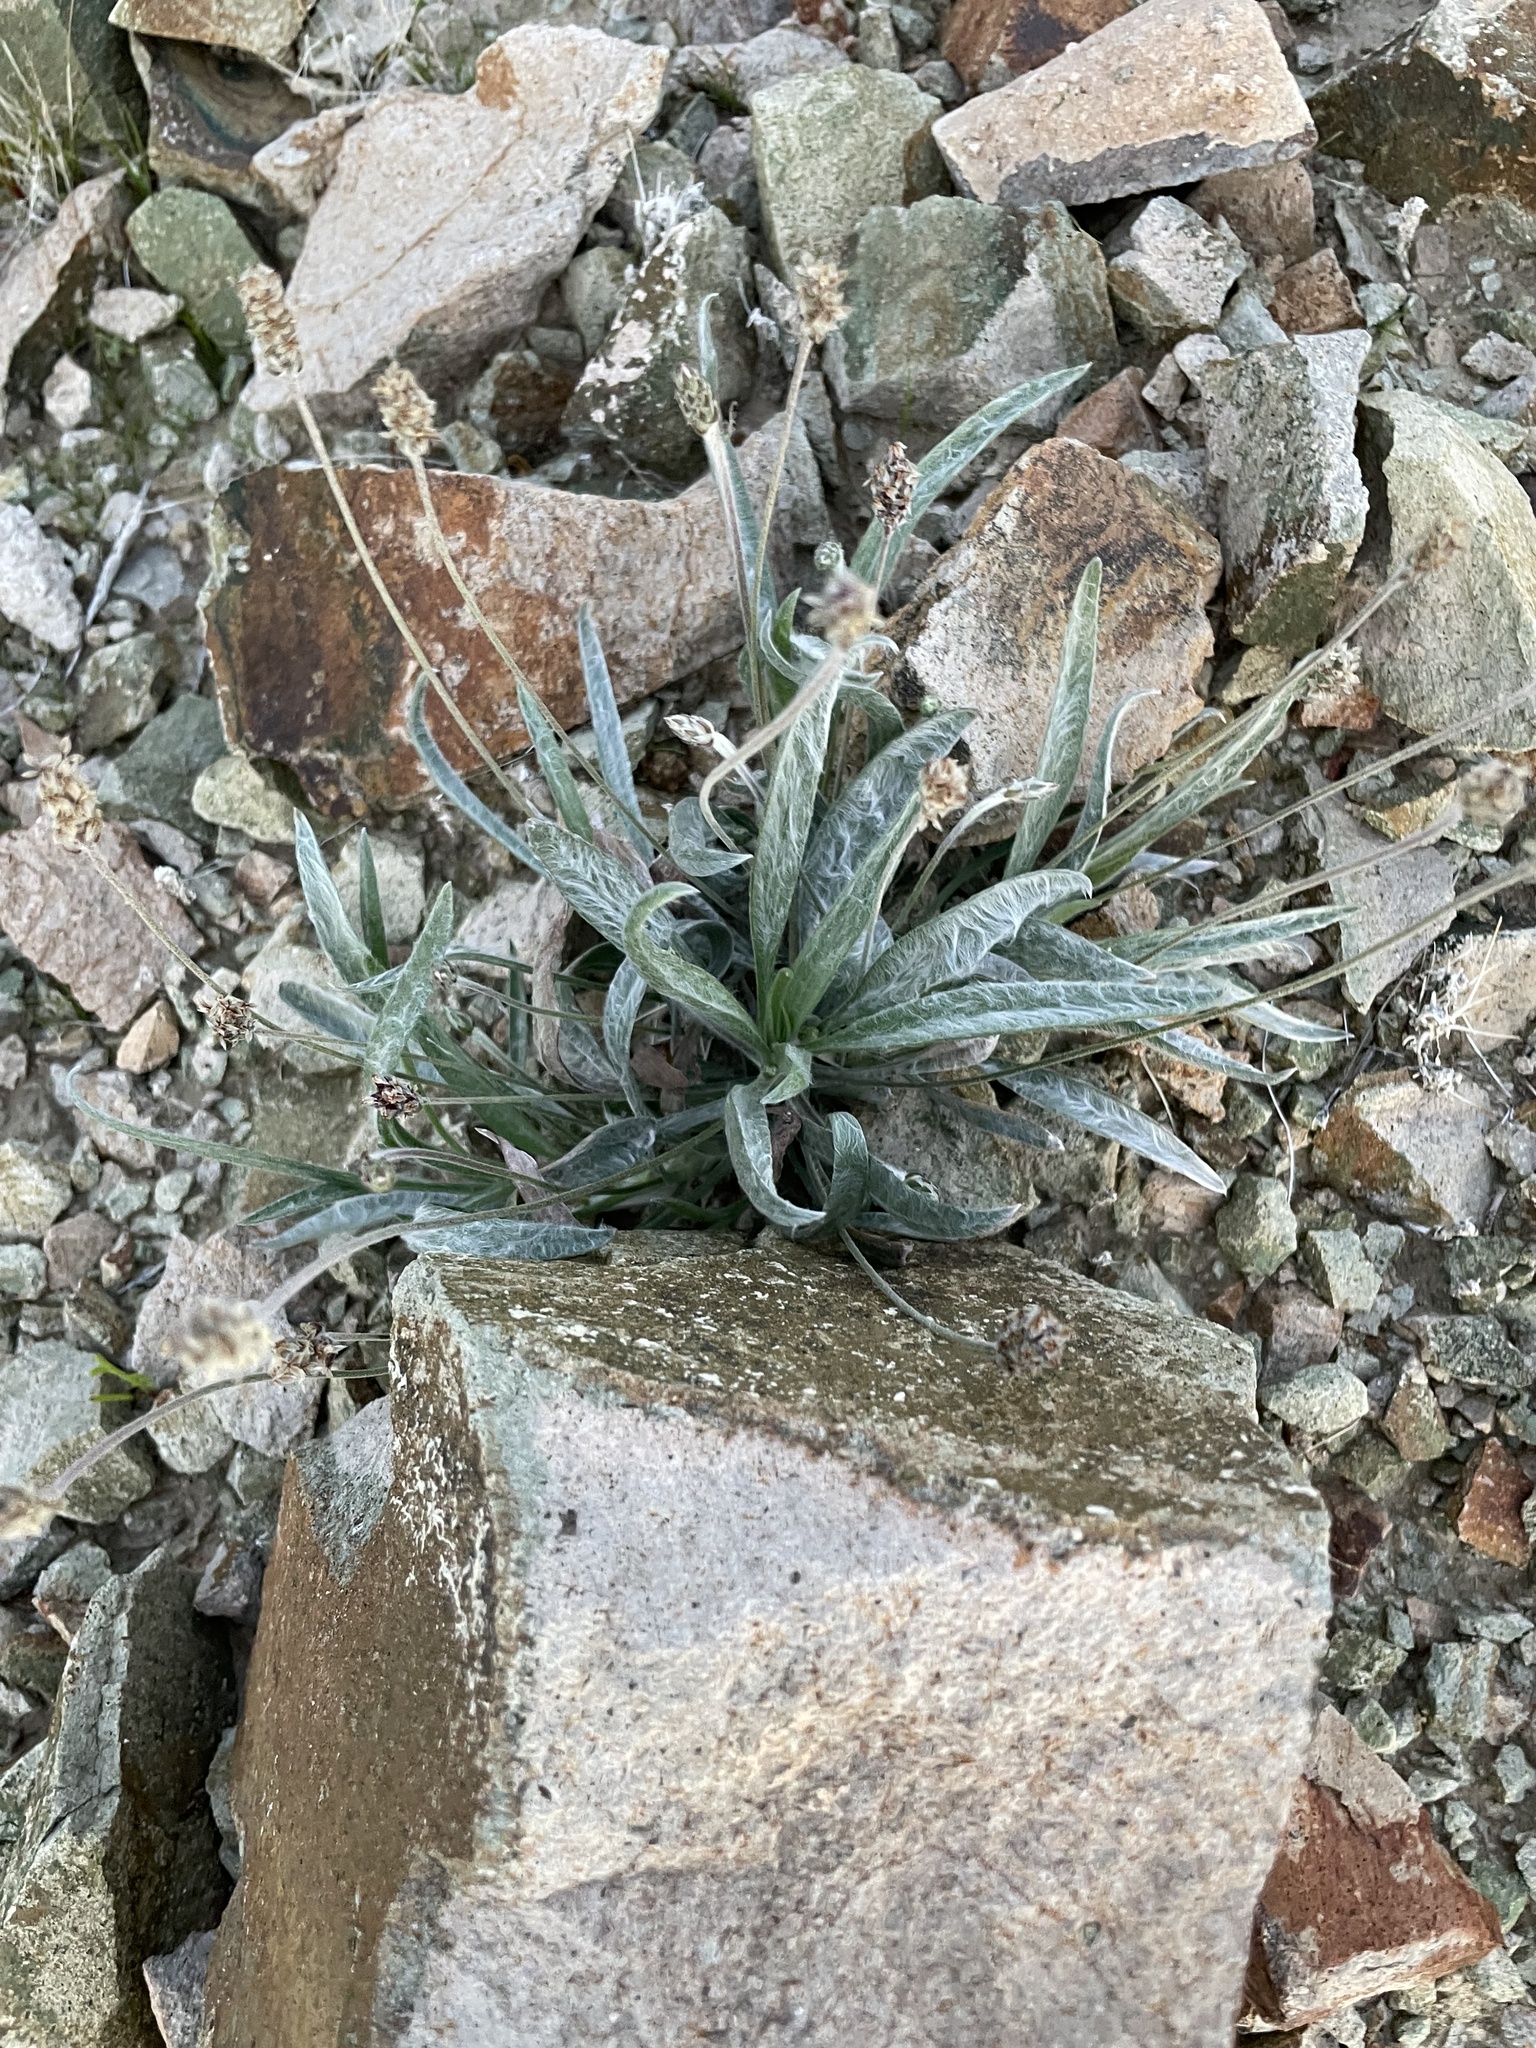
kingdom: Plantae
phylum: Tracheophyta
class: Magnoliopsida
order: Lamiales
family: Plantaginaceae
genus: Plantago
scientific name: Plantago ovata
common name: Blond plantain
